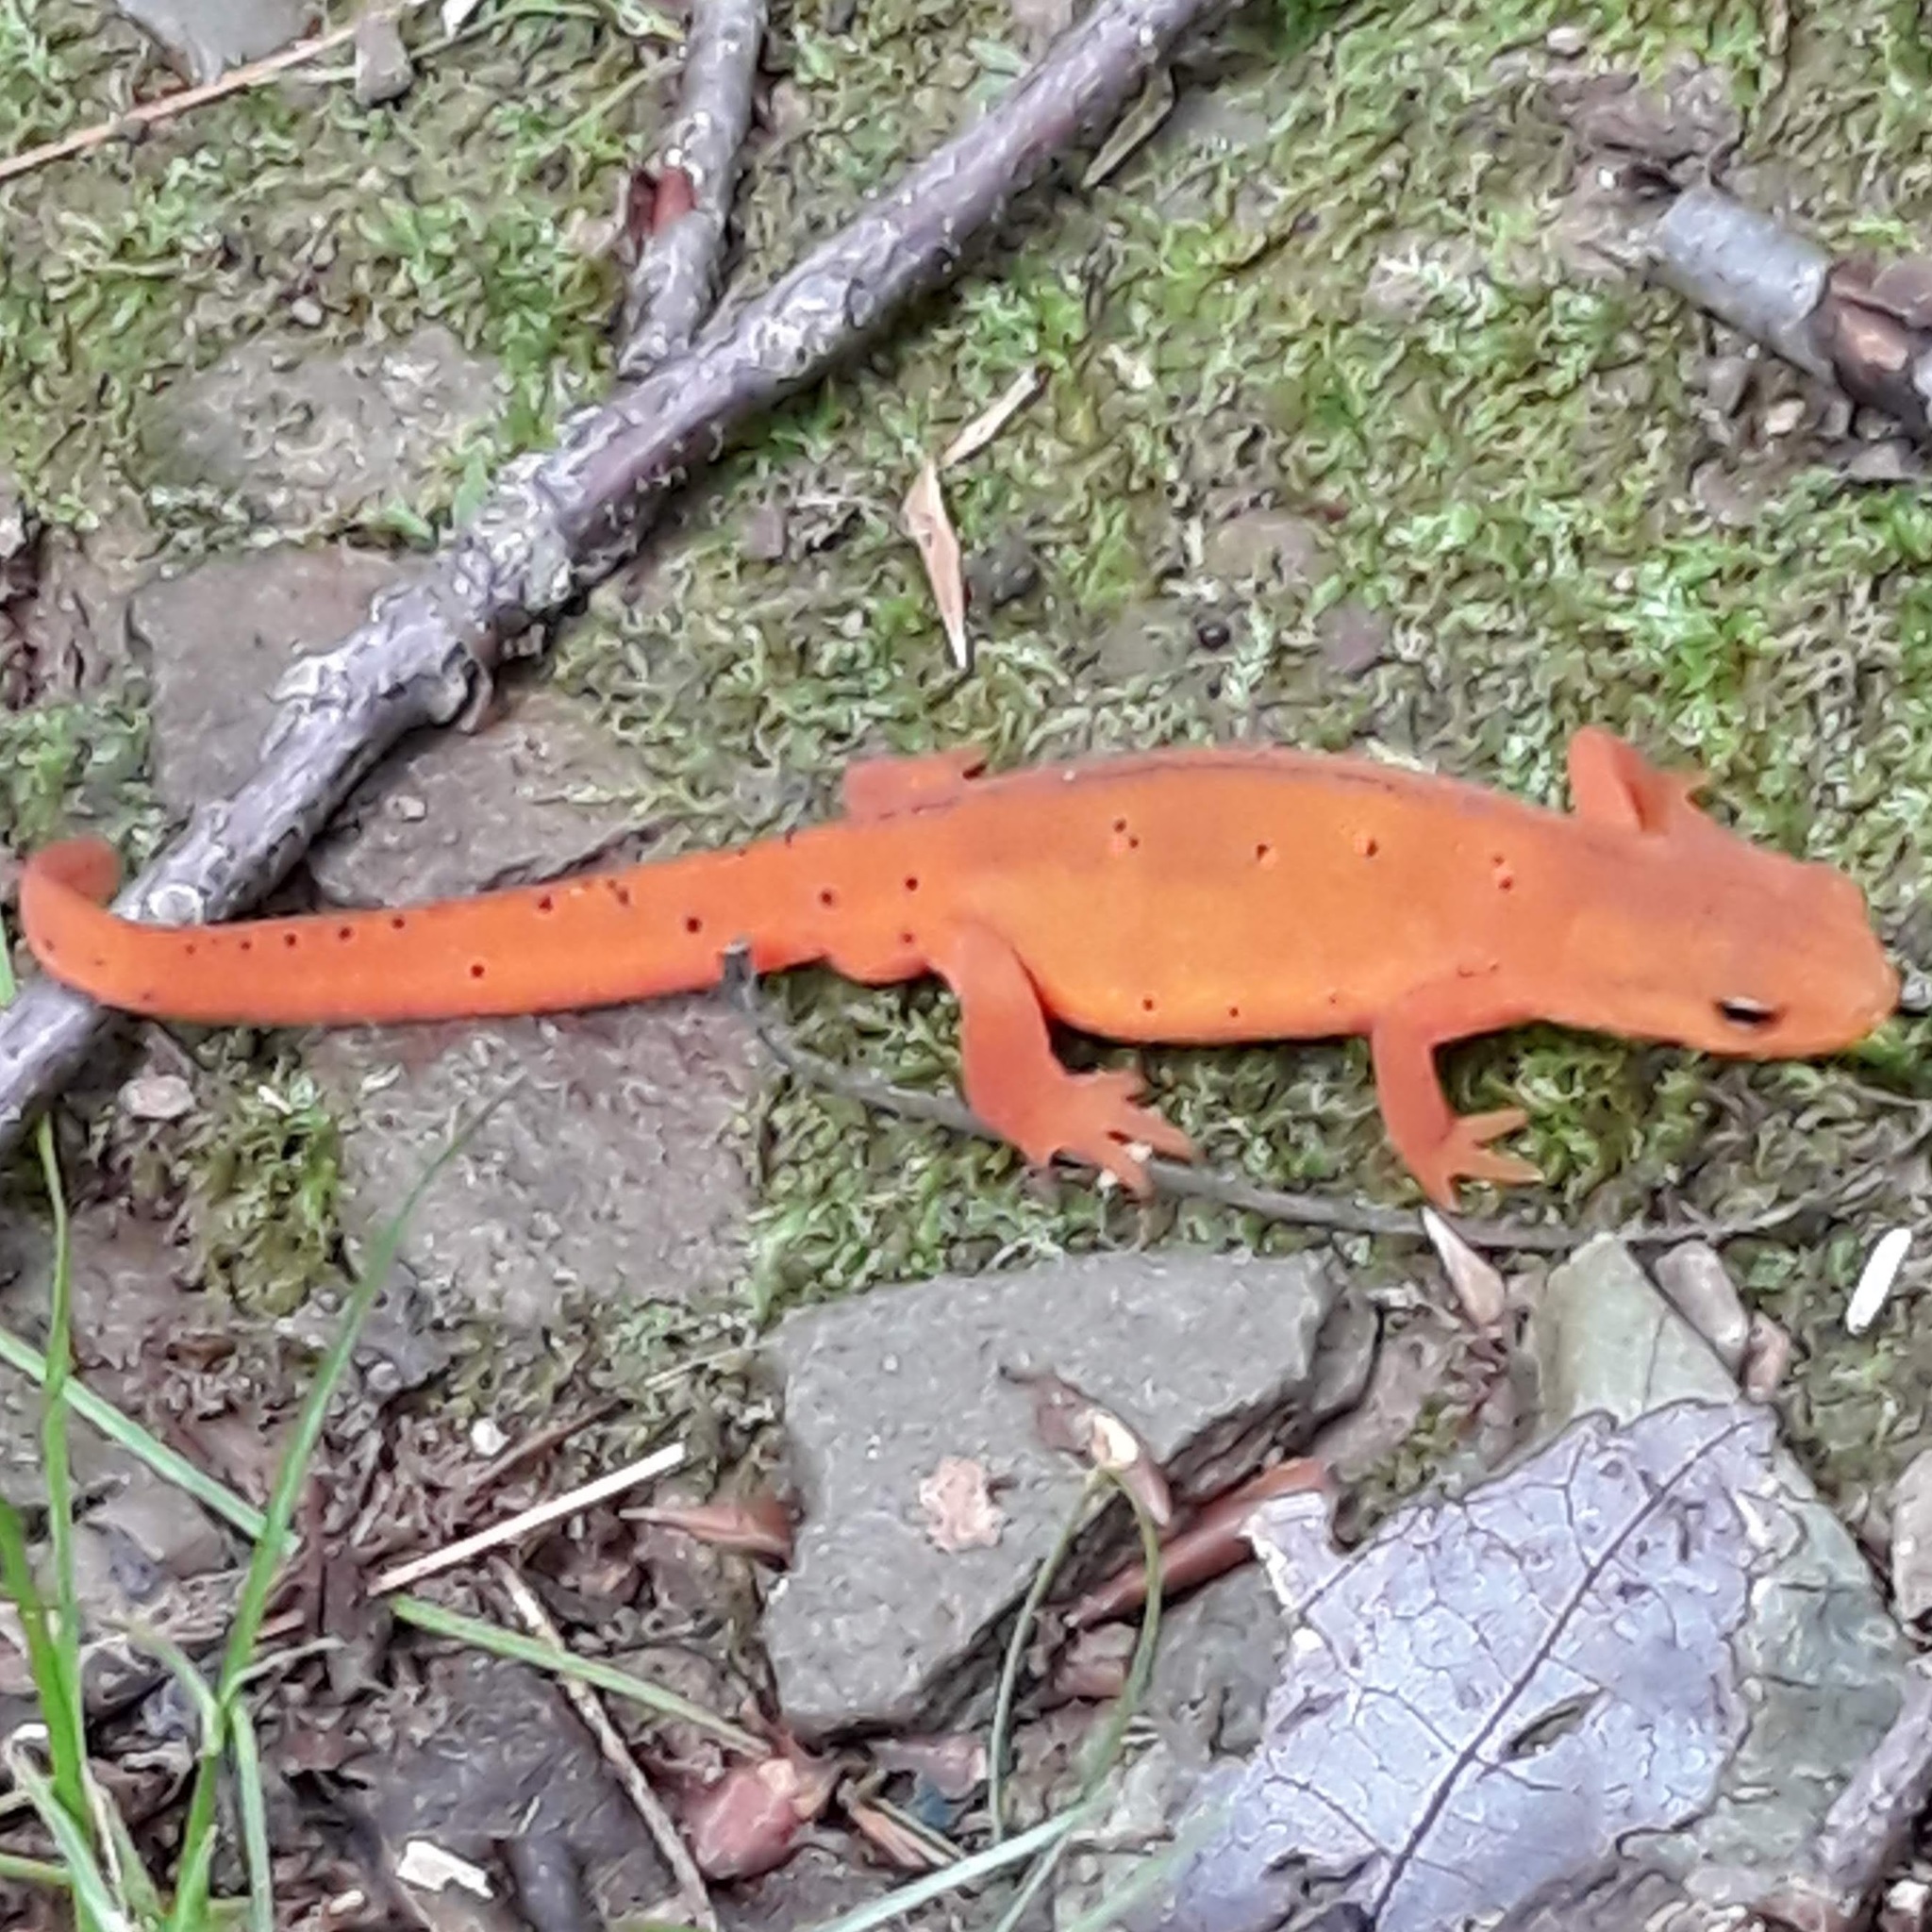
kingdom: Animalia
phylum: Chordata
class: Amphibia
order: Caudata
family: Salamandridae
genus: Notophthalmus
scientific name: Notophthalmus viridescens
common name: Eastern newt
